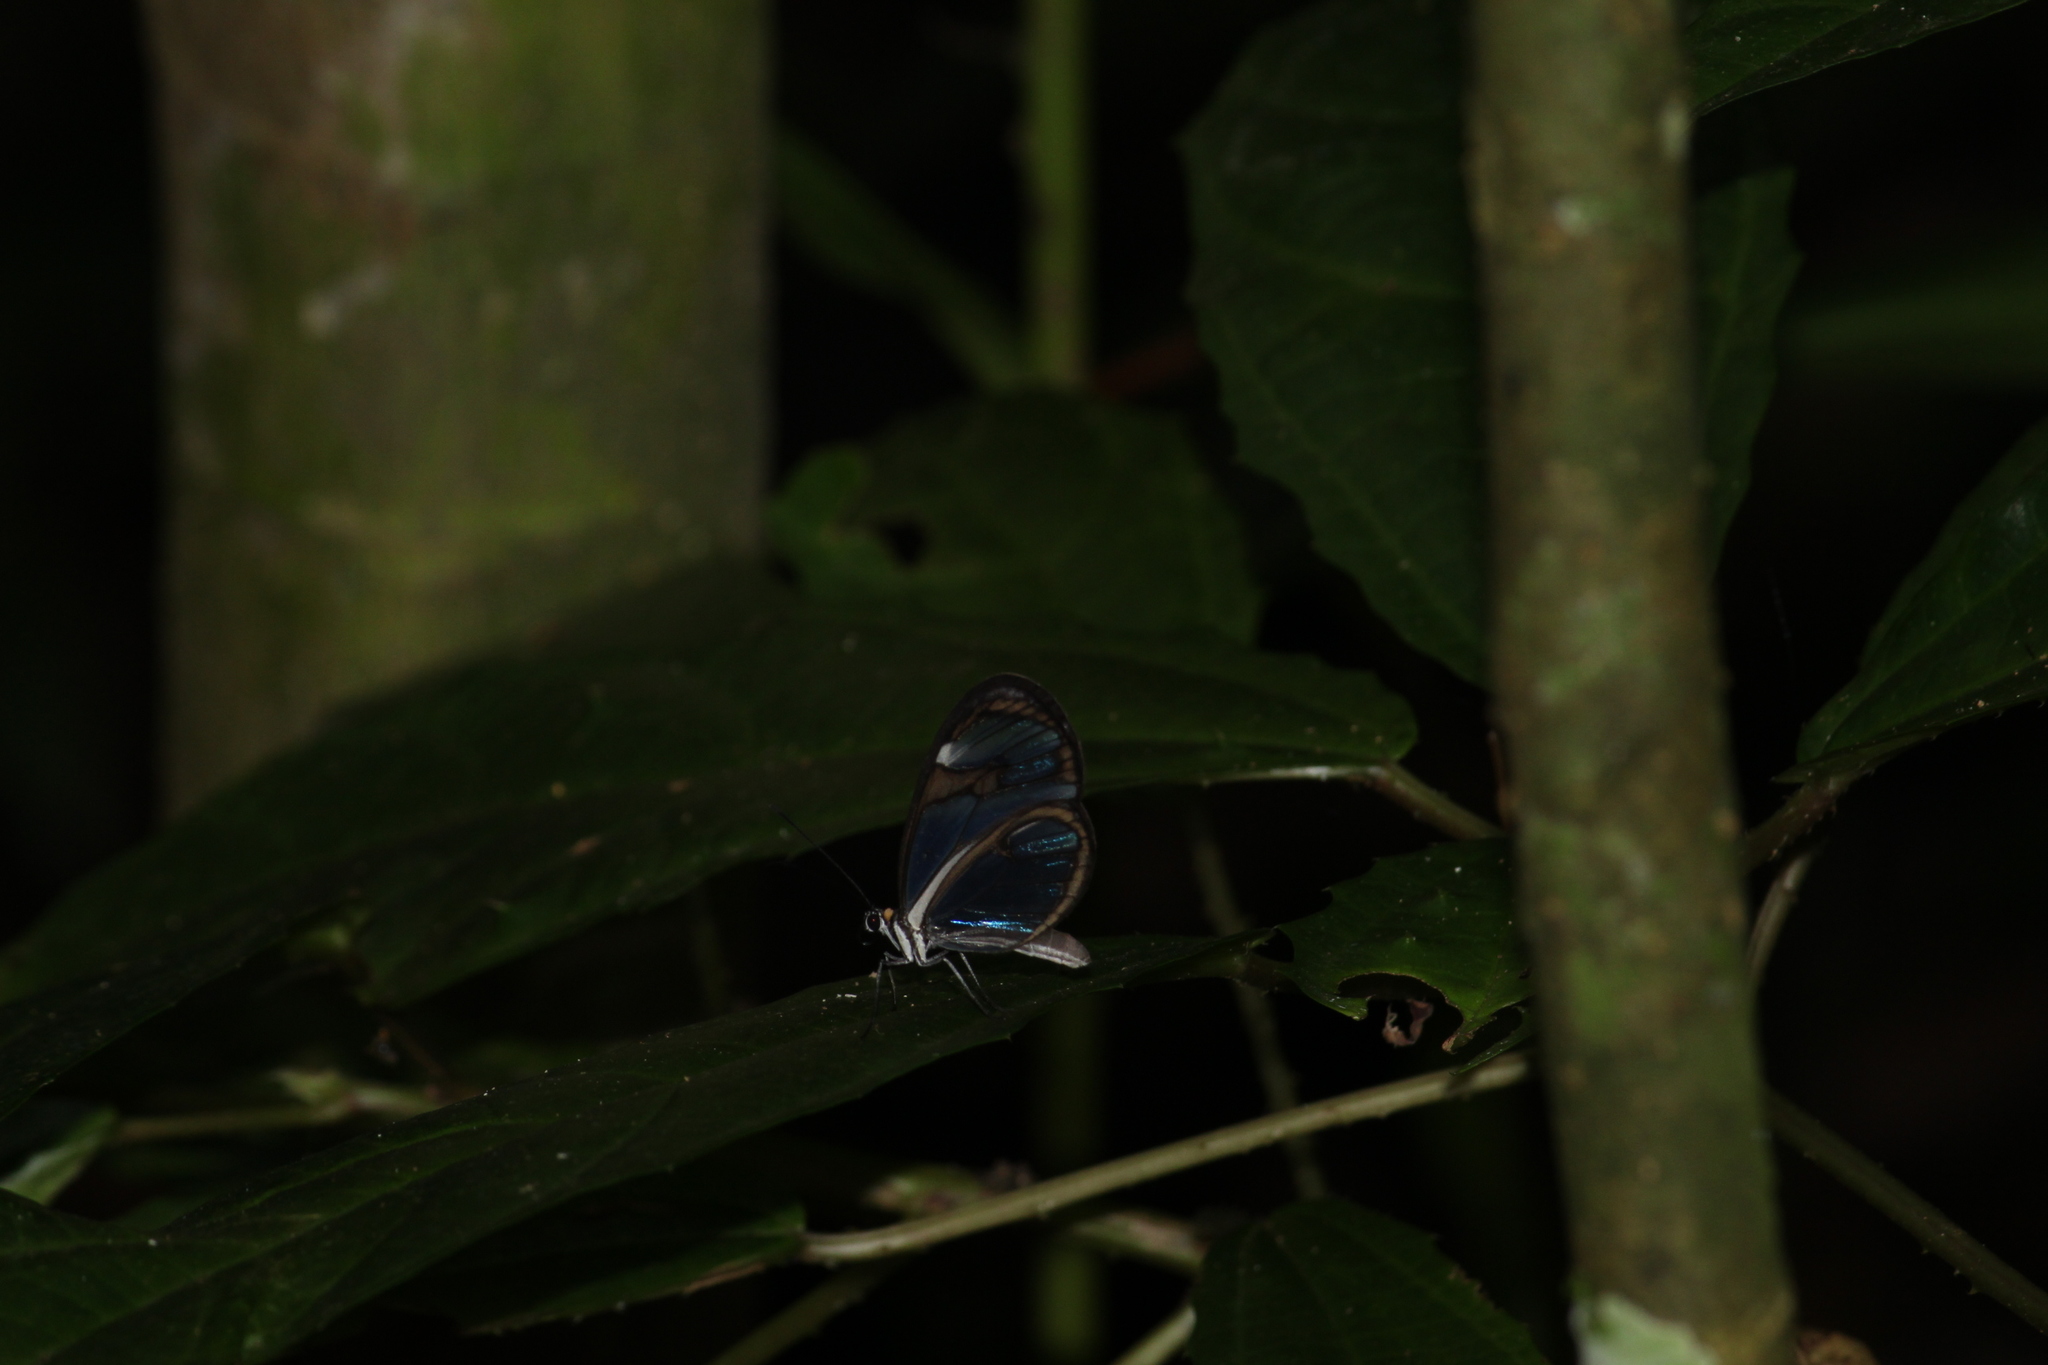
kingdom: Animalia
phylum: Arthropoda
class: Insecta
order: Lepidoptera
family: Nymphalidae
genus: Ithomia
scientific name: Ithomia drymo
